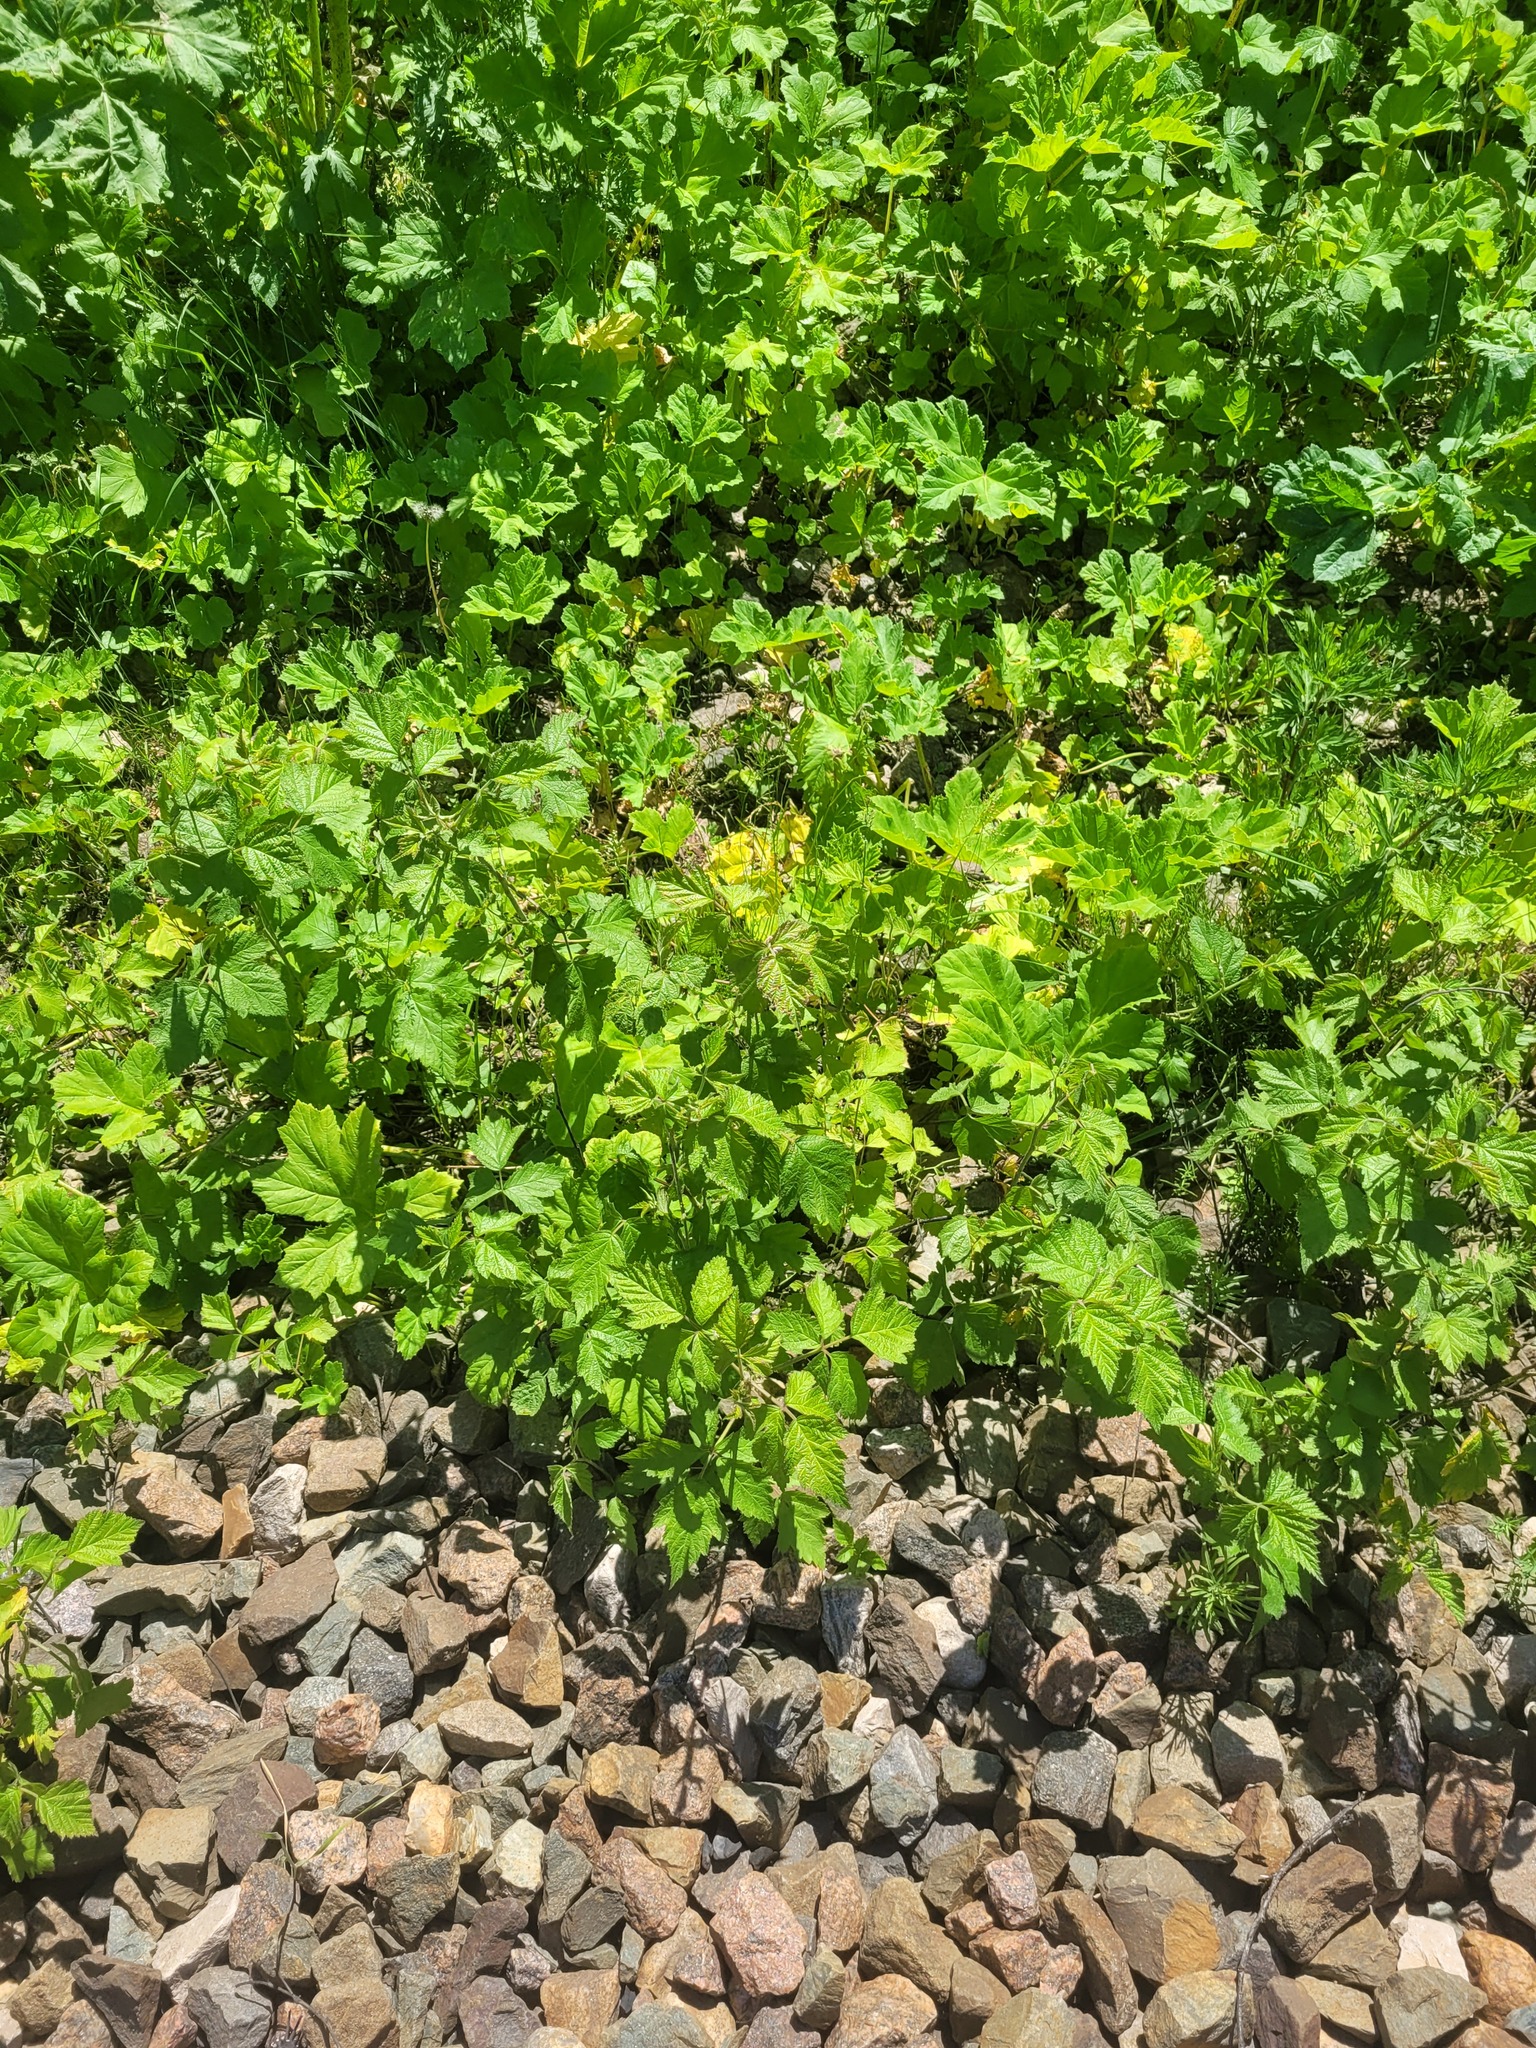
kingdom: Plantae
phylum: Tracheophyta
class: Magnoliopsida
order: Rosales
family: Rosaceae
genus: Rubus
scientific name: Rubus caesius
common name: Dewberry
